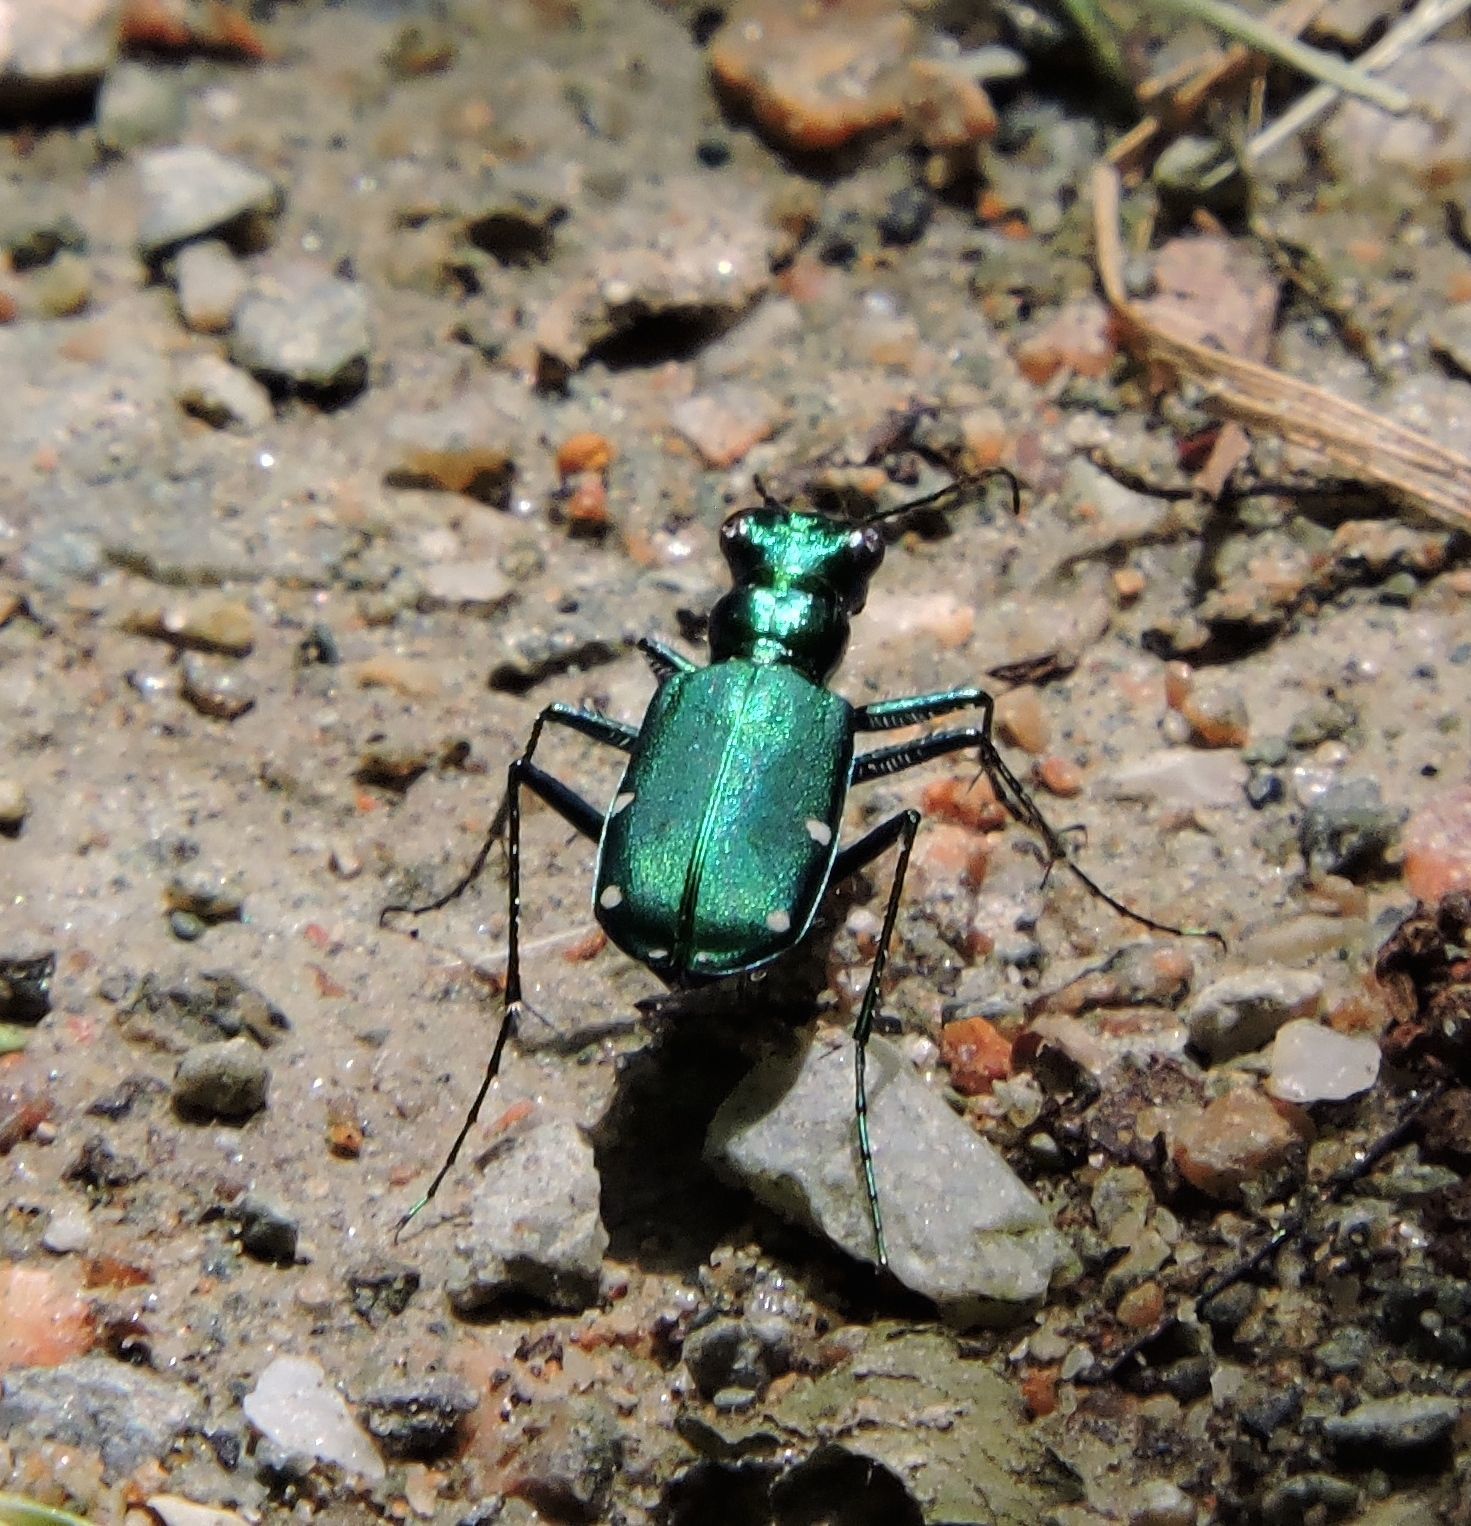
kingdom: Animalia
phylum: Arthropoda
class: Insecta
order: Coleoptera
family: Carabidae
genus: Cicindela
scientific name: Cicindela sexguttata
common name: Six-spotted tiger beetle
